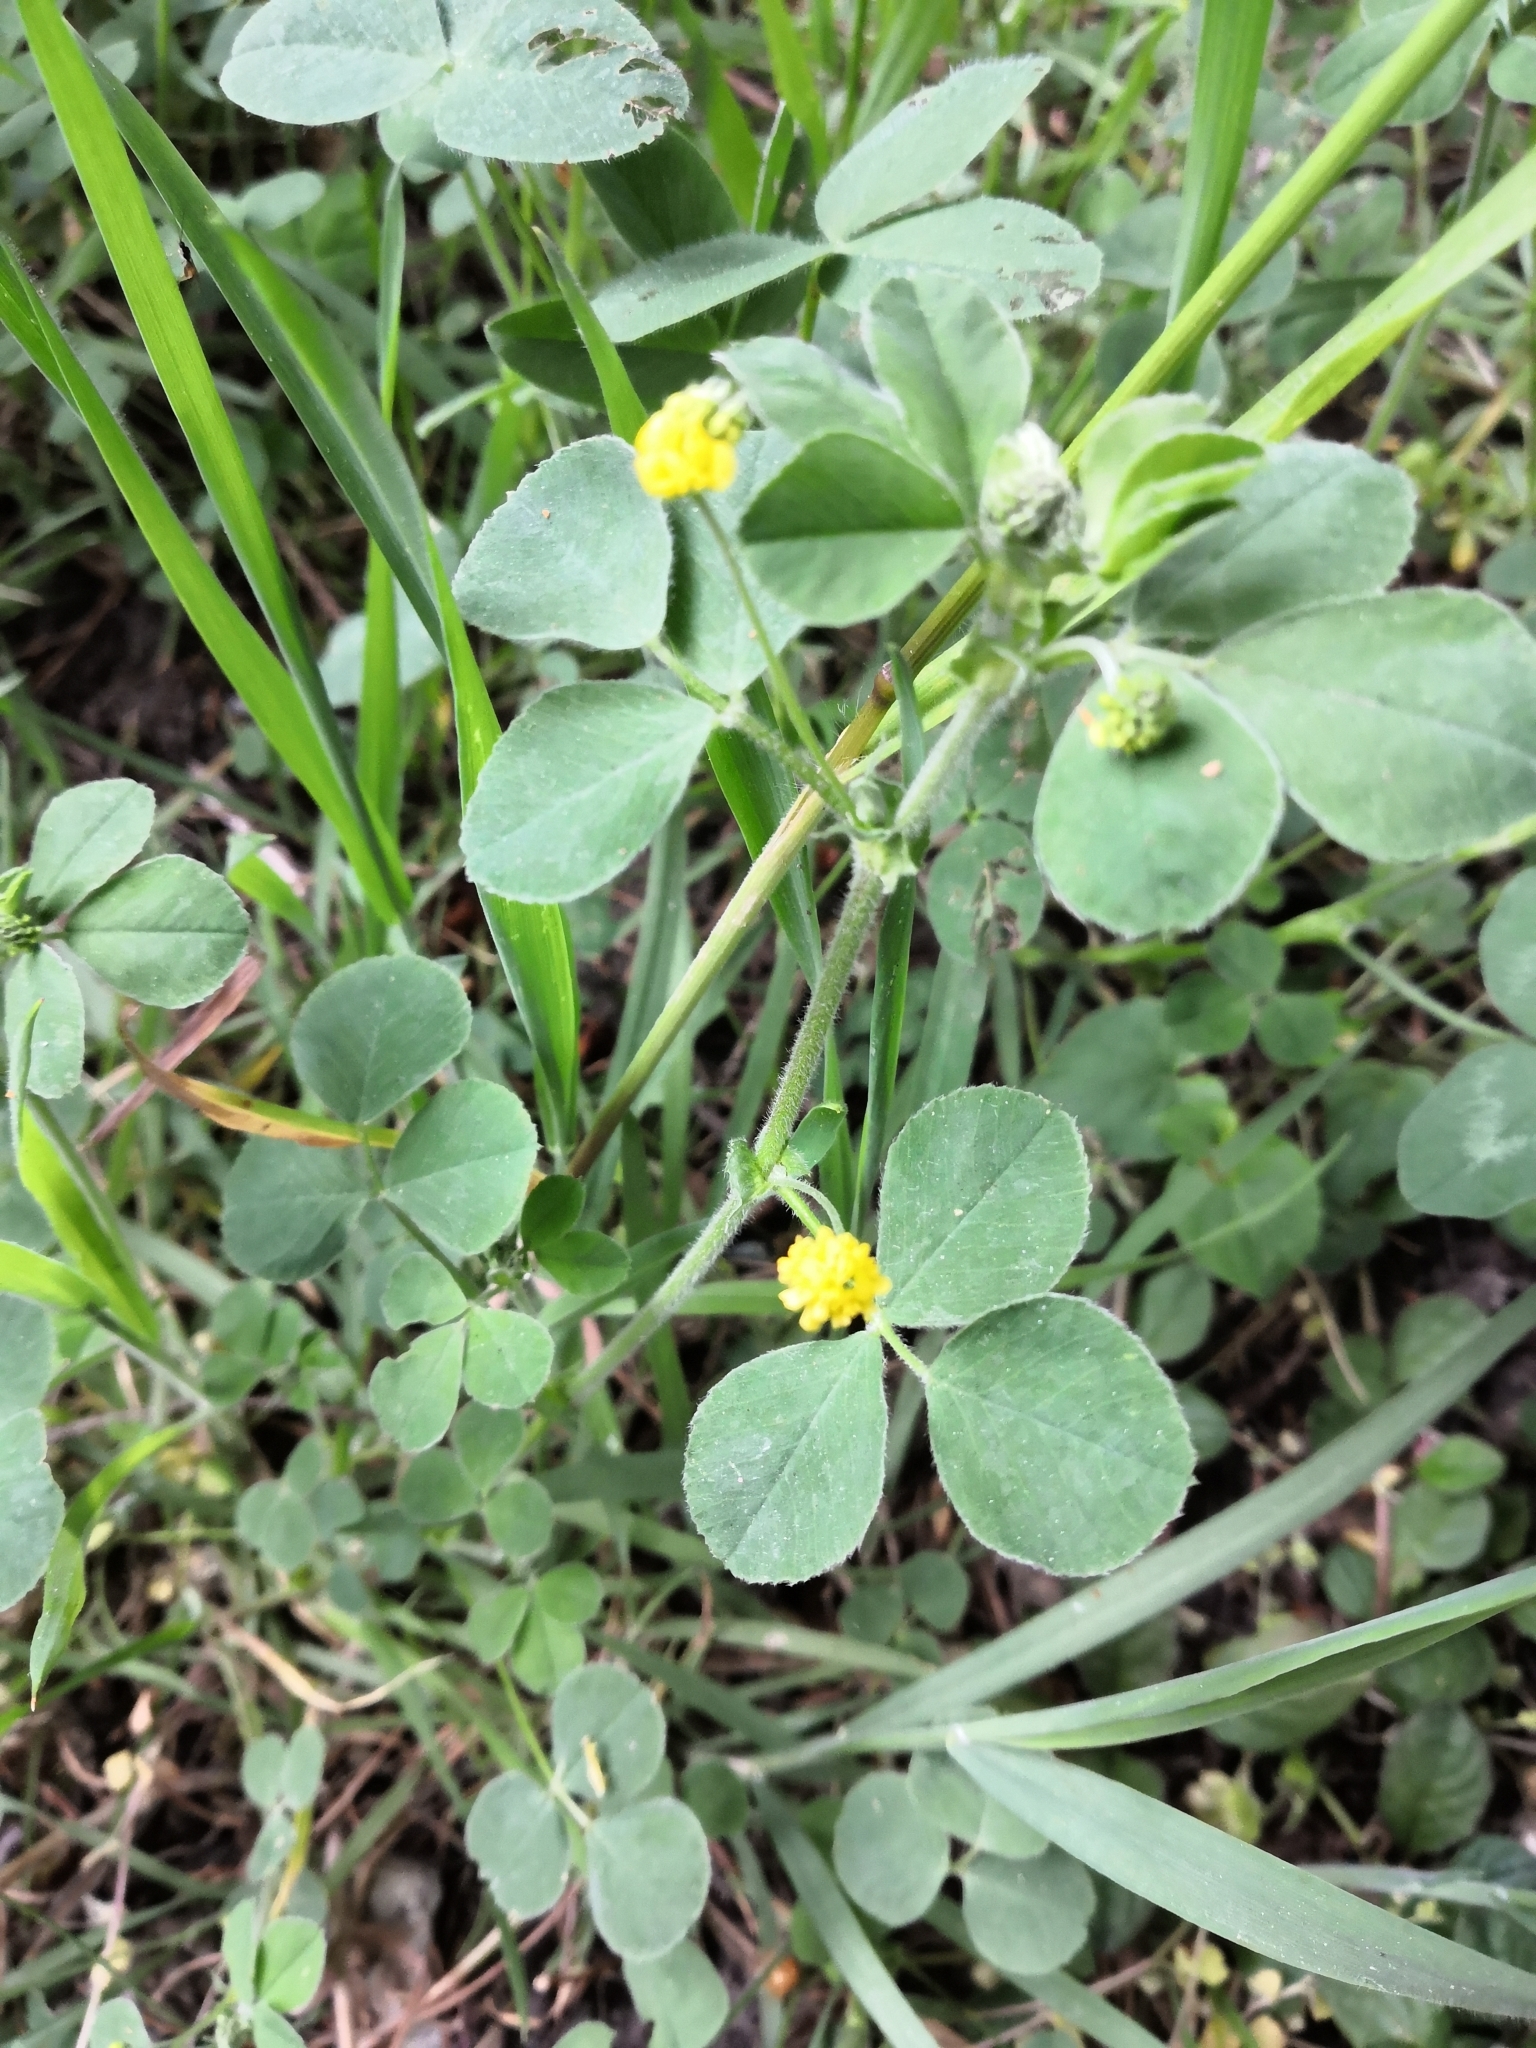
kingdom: Plantae
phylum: Tracheophyta
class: Magnoliopsida
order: Fabales
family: Fabaceae
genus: Medicago
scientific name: Medicago lupulina
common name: Black medick
